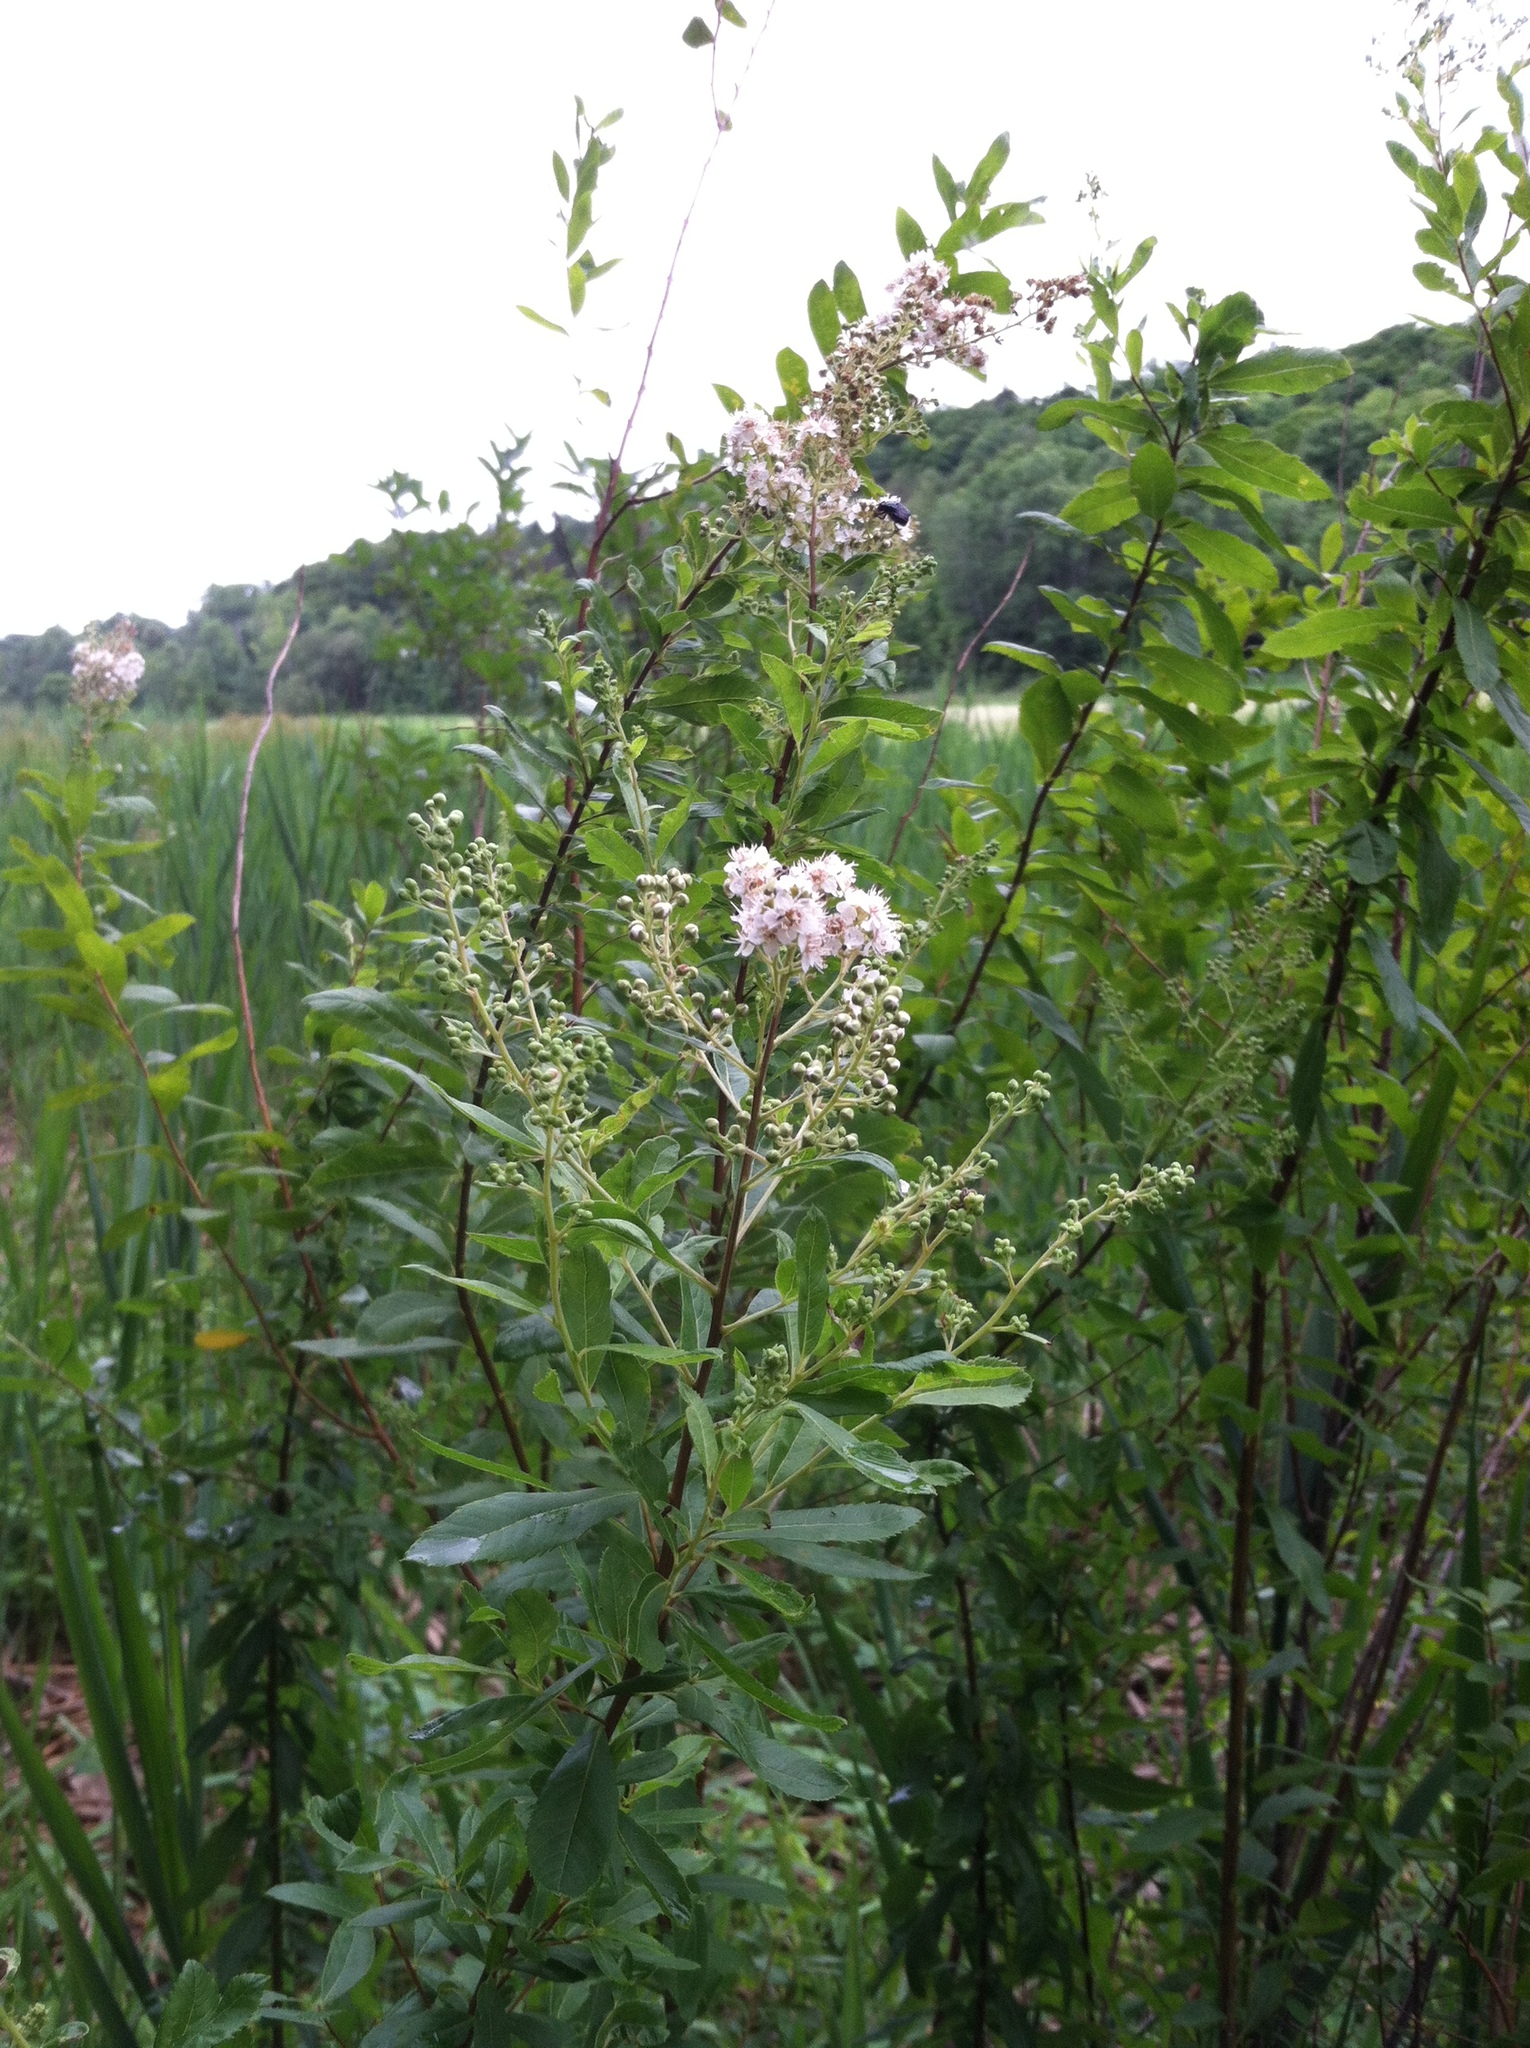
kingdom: Plantae
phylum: Tracheophyta
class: Magnoliopsida
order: Rosales
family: Rosaceae
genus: Spiraea
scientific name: Spiraea alba
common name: Pale bridewort
